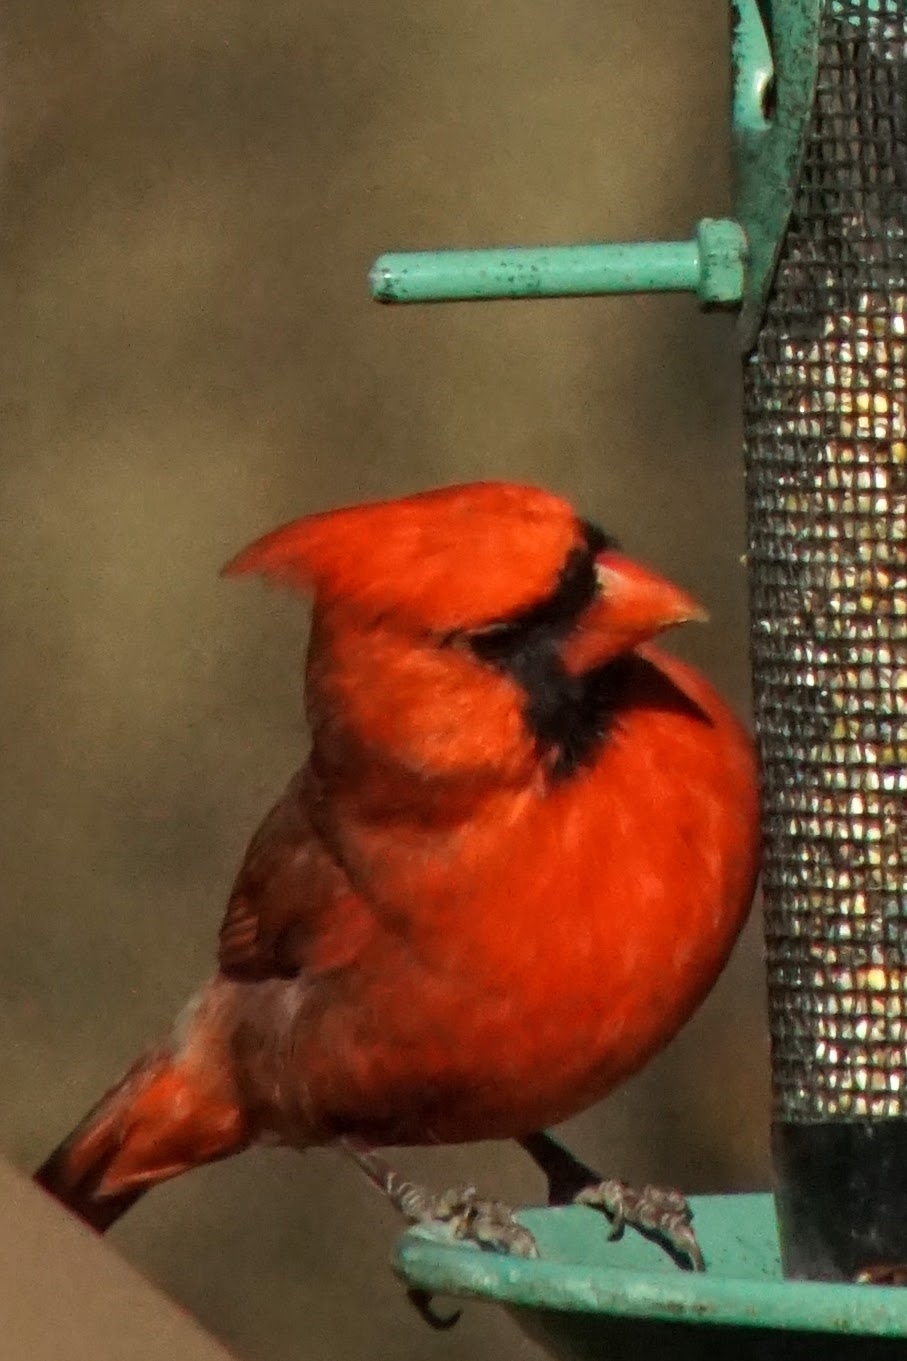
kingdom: Animalia
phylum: Chordata
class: Aves
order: Passeriformes
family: Cardinalidae
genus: Cardinalis
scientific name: Cardinalis cardinalis
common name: Northern cardinal
